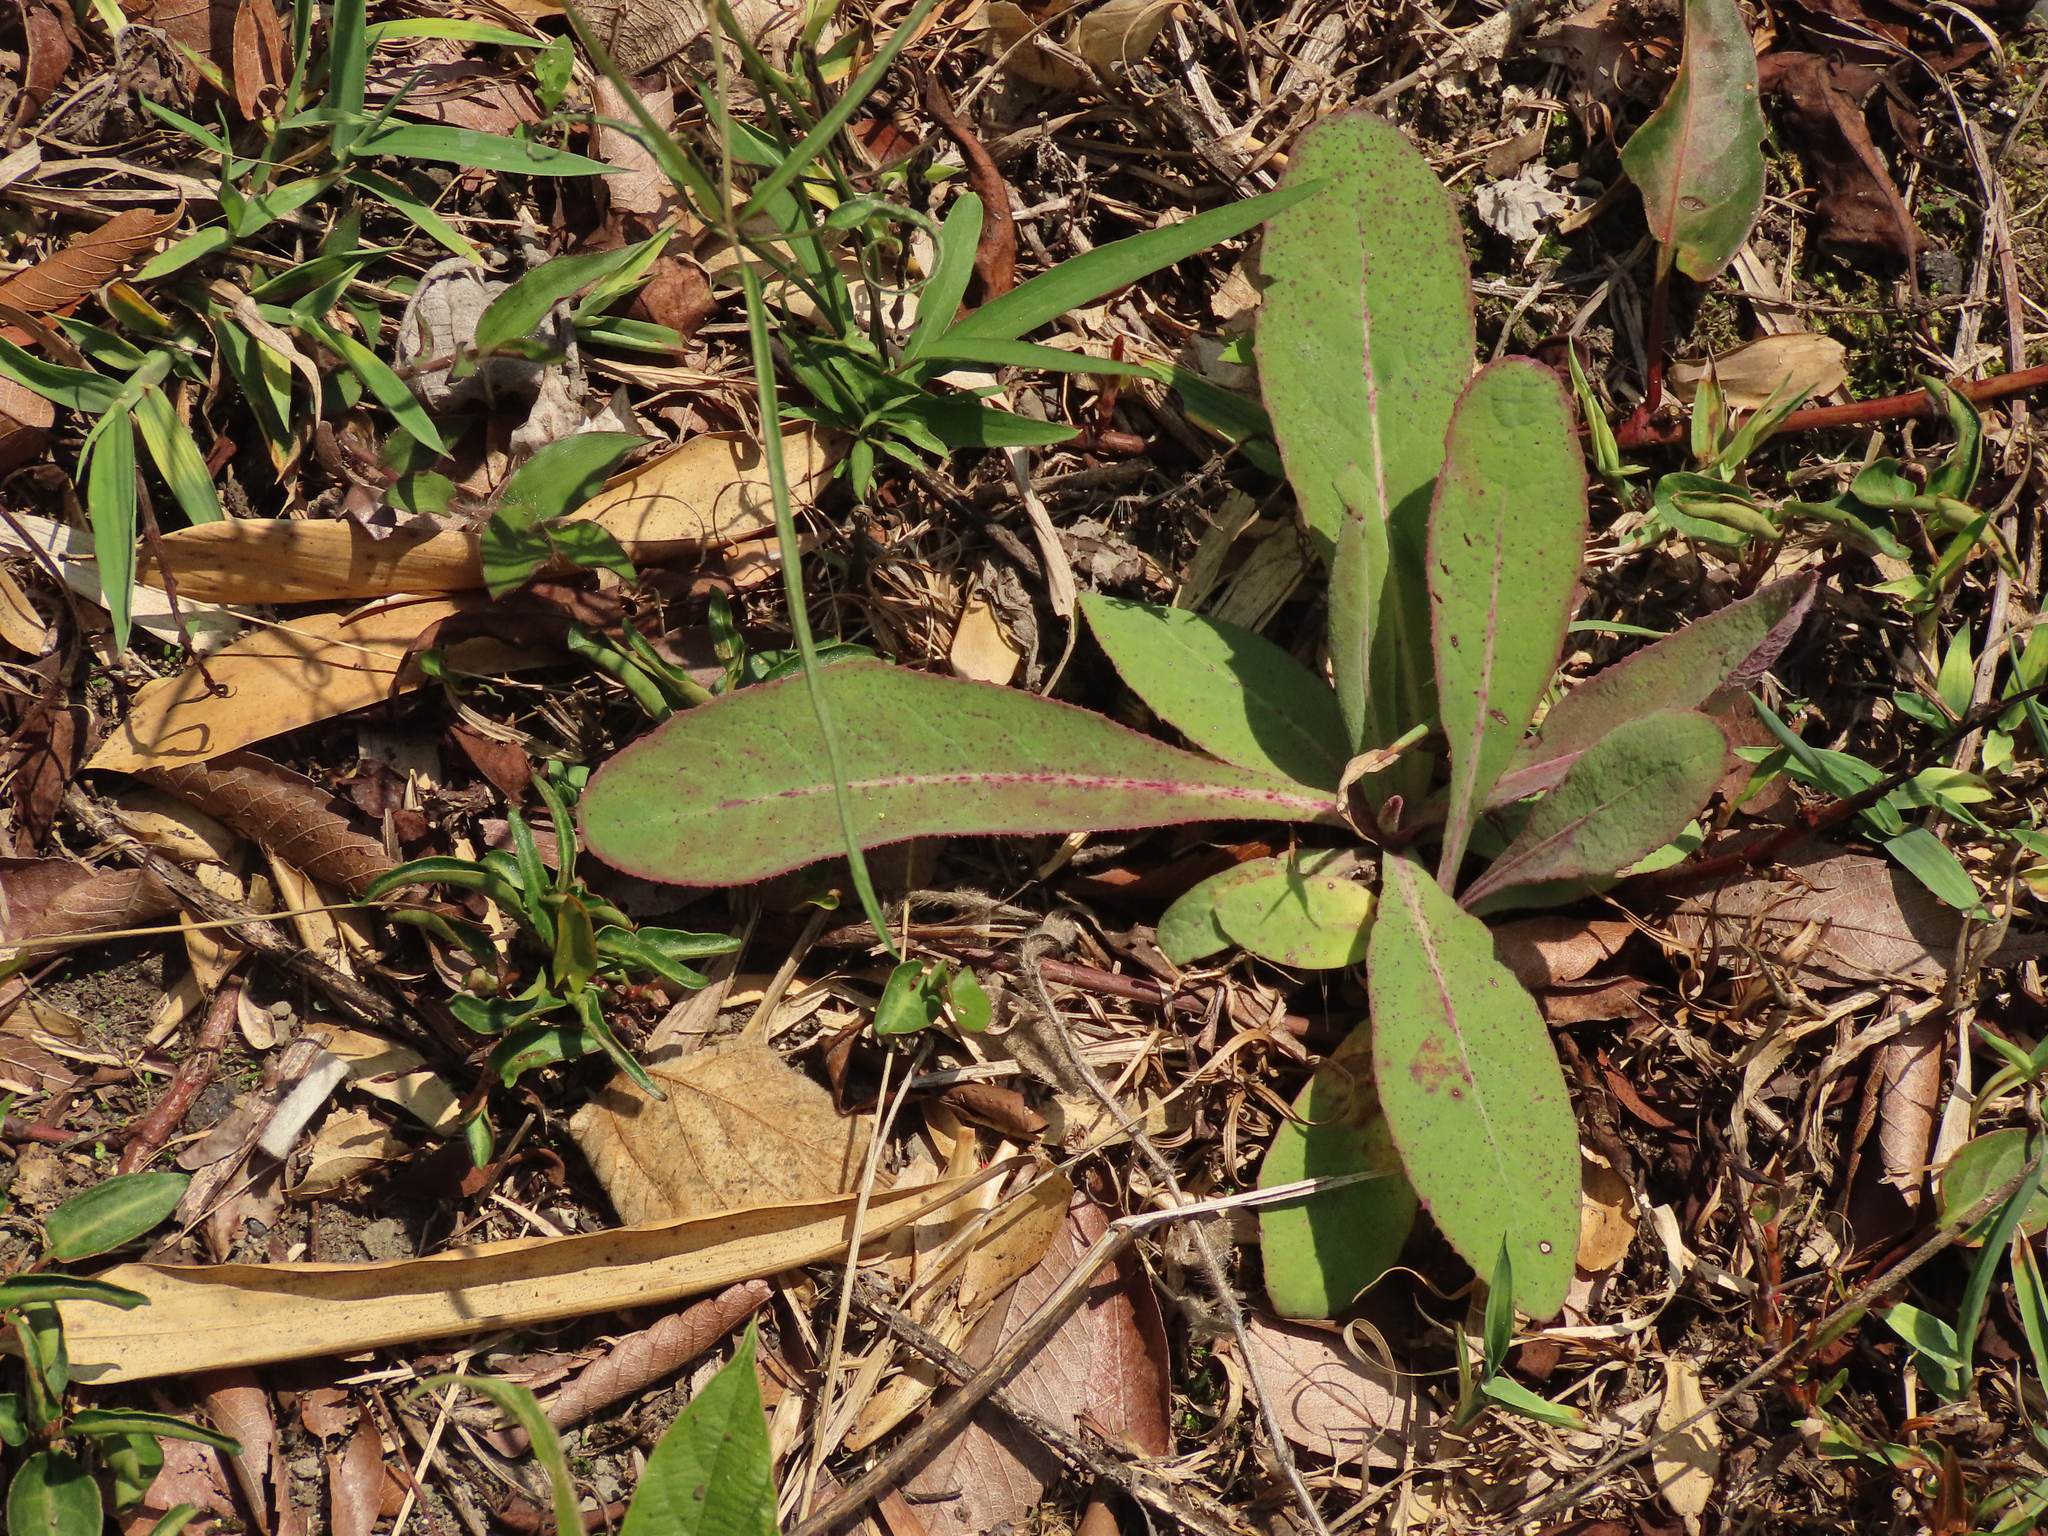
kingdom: Plantae
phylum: Tracheophyta
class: Magnoliopsida
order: Asterales
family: Asteraceae
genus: Sonchus
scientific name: Sonchus arvensis
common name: Perennial sow-thistle
